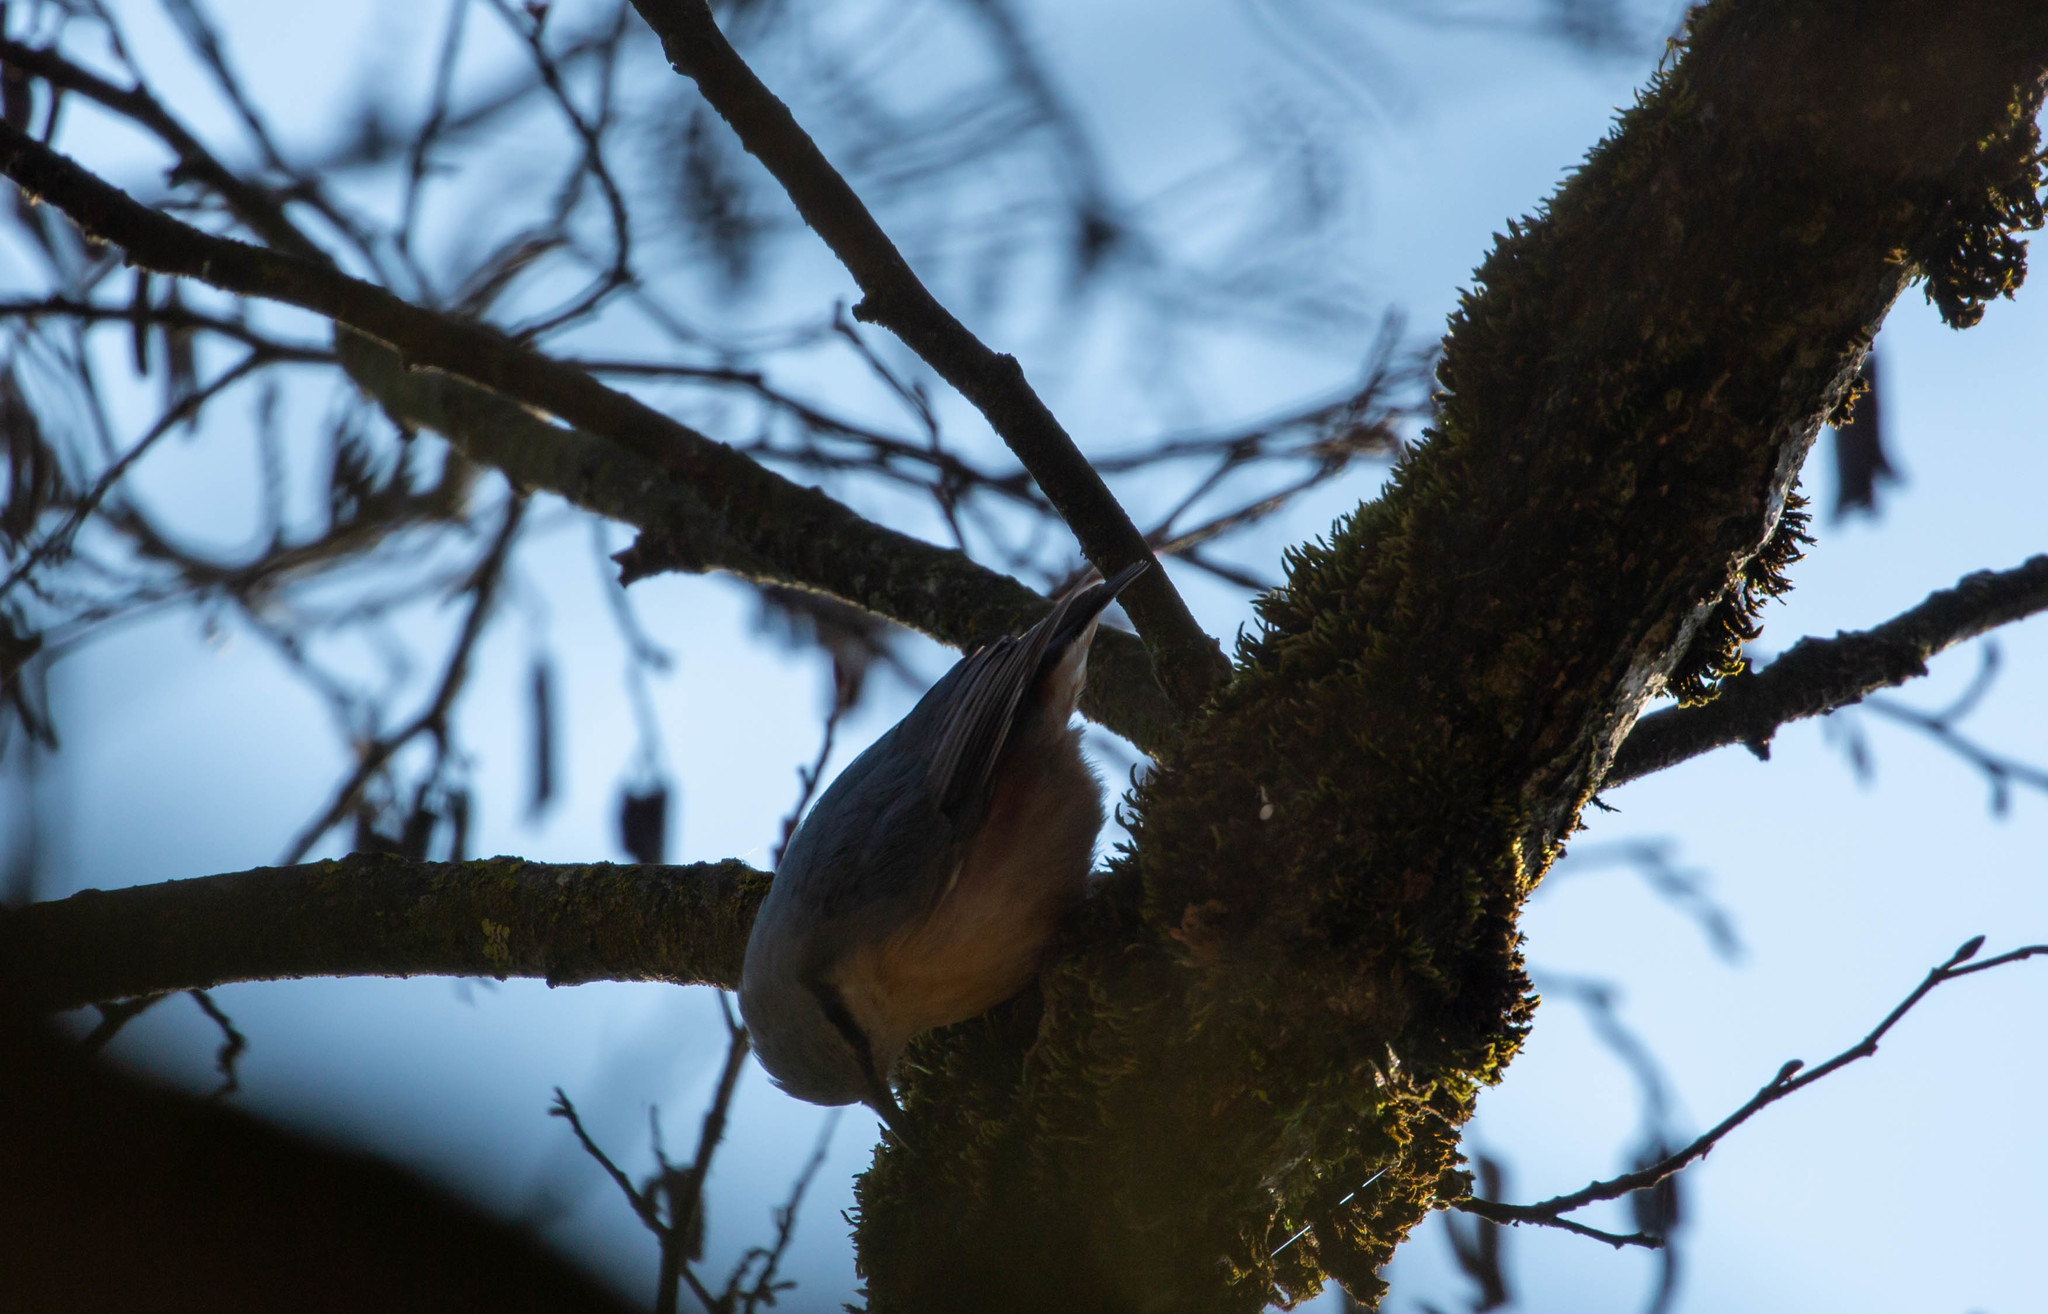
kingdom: Animalia
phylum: Chordata
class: Aves
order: Passeriformes
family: Sittidae
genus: Sitta
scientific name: Sitta europaea
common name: Eurasian nuthatch
